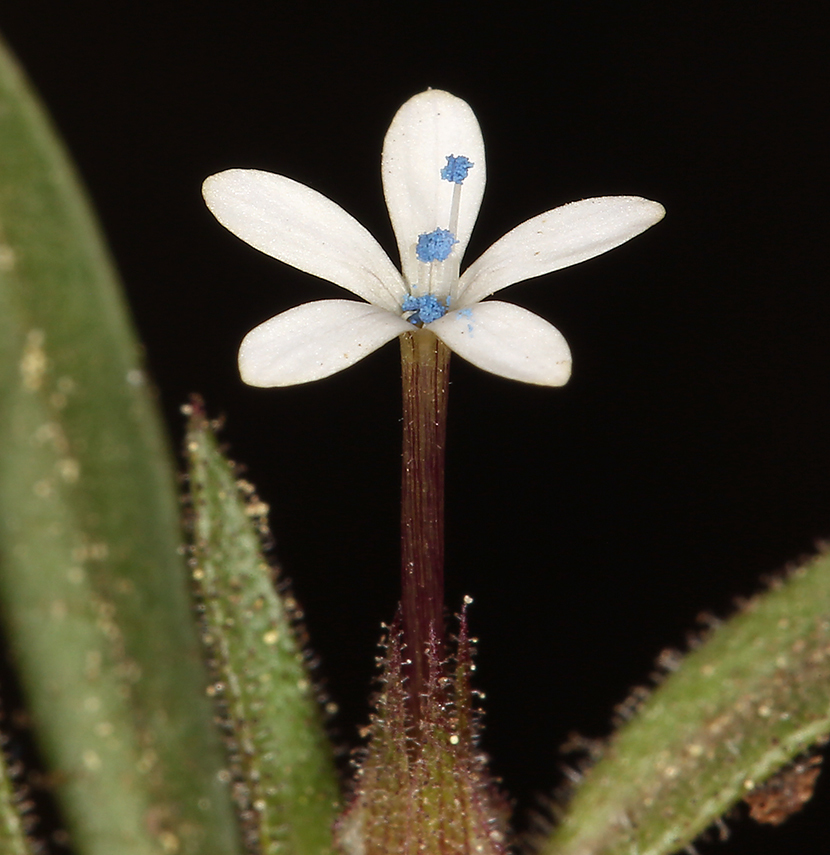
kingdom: Plantae
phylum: Tracheophyta
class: Magnoliopsida
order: Ericales
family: Polemoniaceae
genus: Collomia
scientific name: Collomia tinctoria
